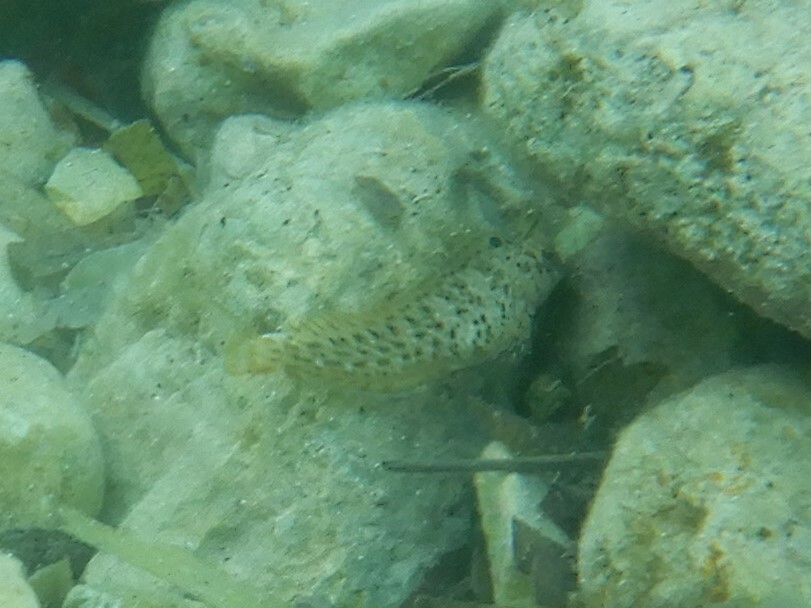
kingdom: Animalia
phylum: Chordata
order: Perciformes
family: Blenniidae
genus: Parablennius
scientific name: Parablennius sanguinolentus
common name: Black sea blenny
